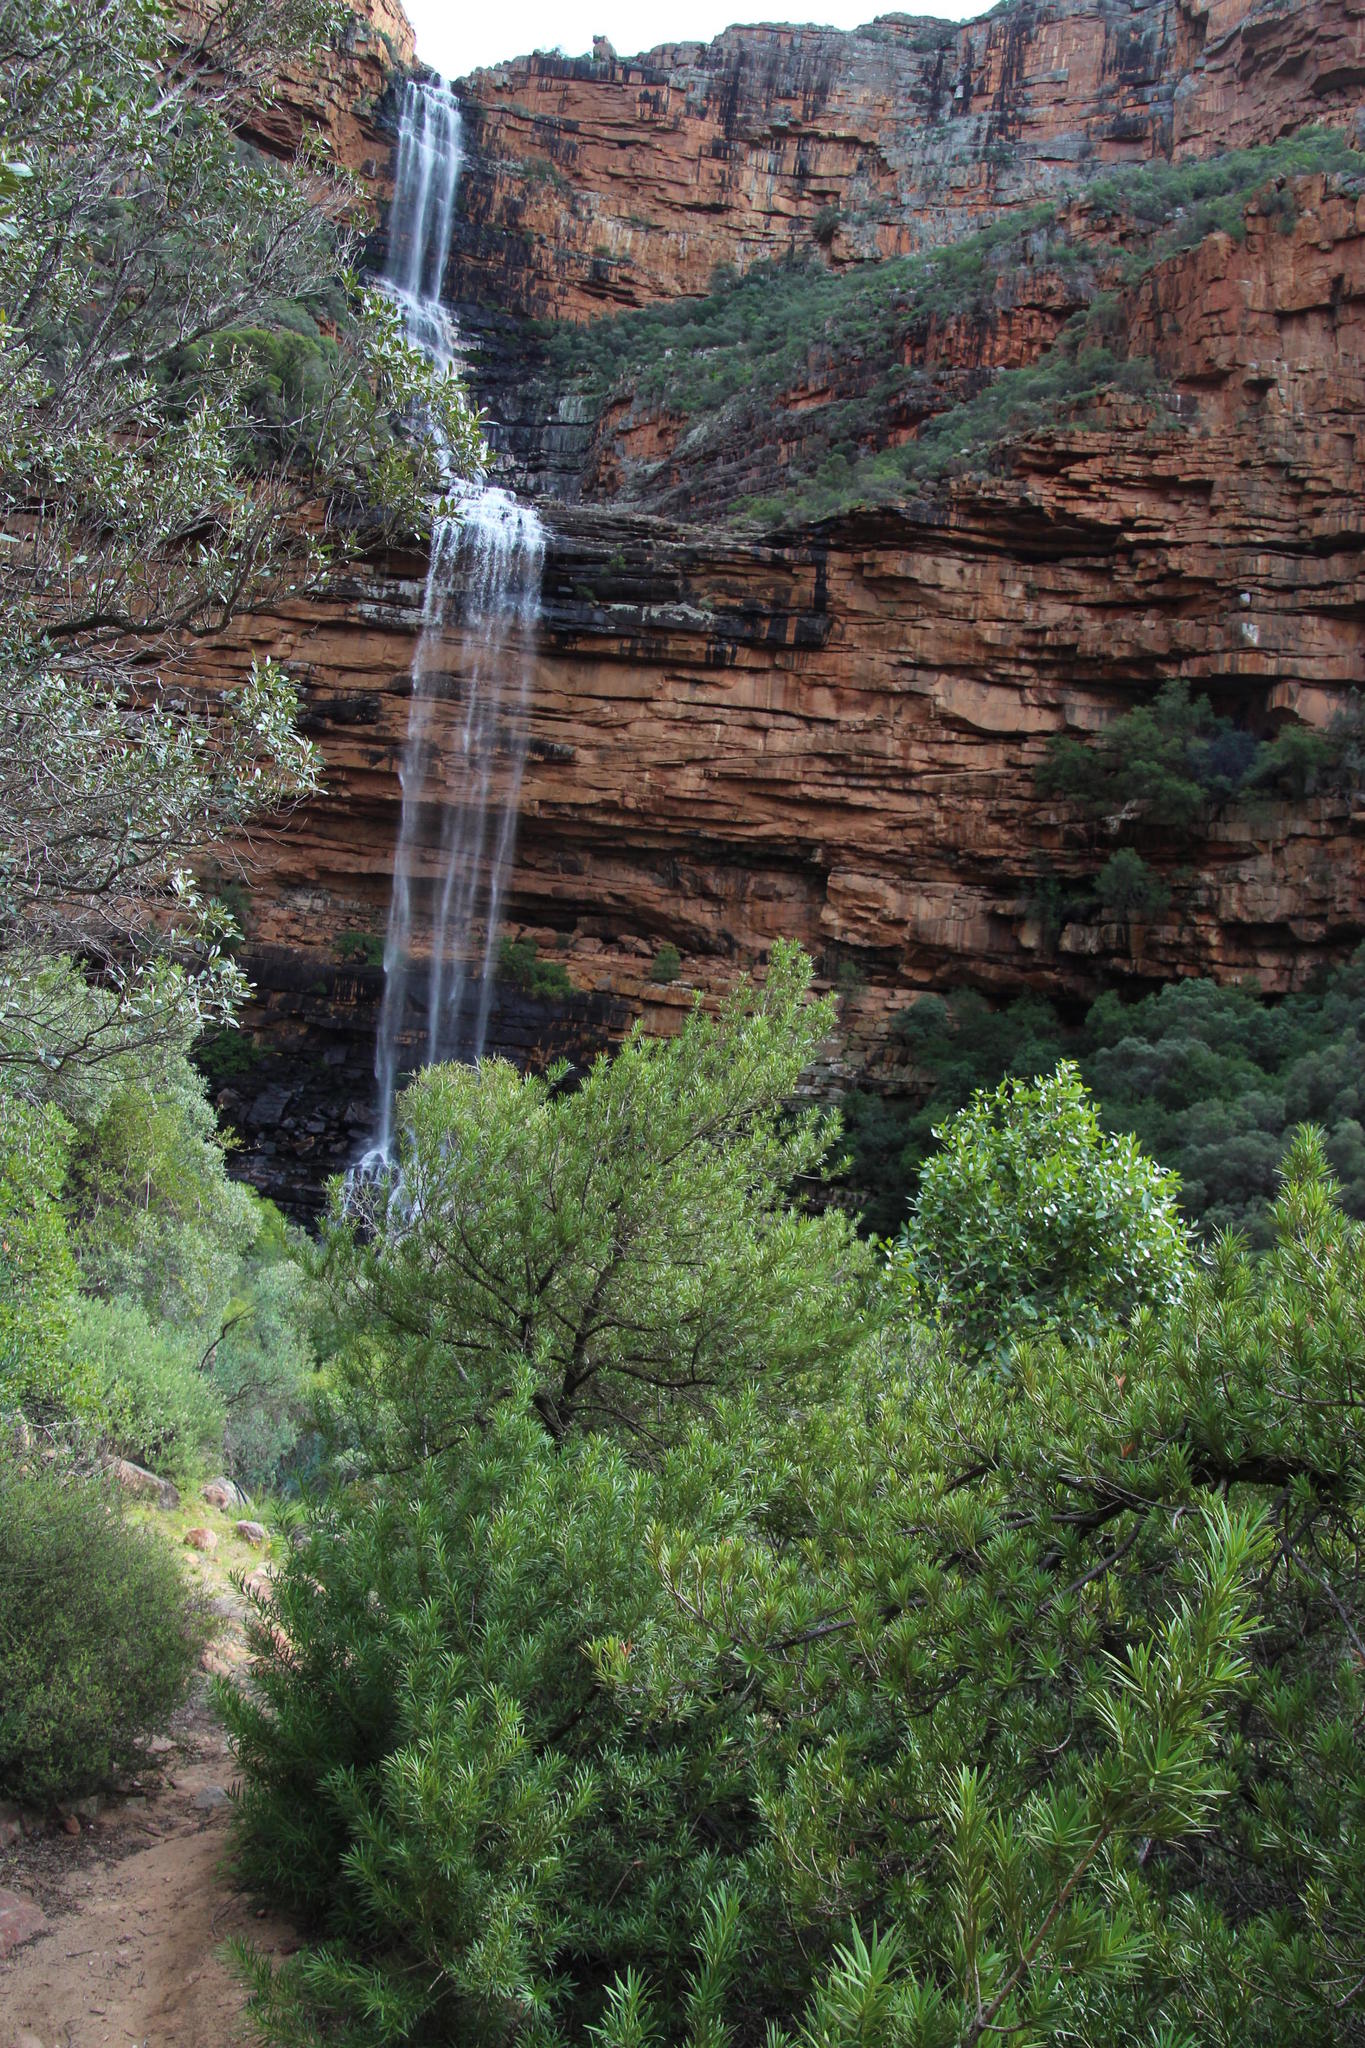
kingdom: Plantae
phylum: Tracheophyta
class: Pinopsida
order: Pinales
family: Podocarpaceae
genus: Podocarpus
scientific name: Podocarpus elongatus
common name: Breede river yellowwood
